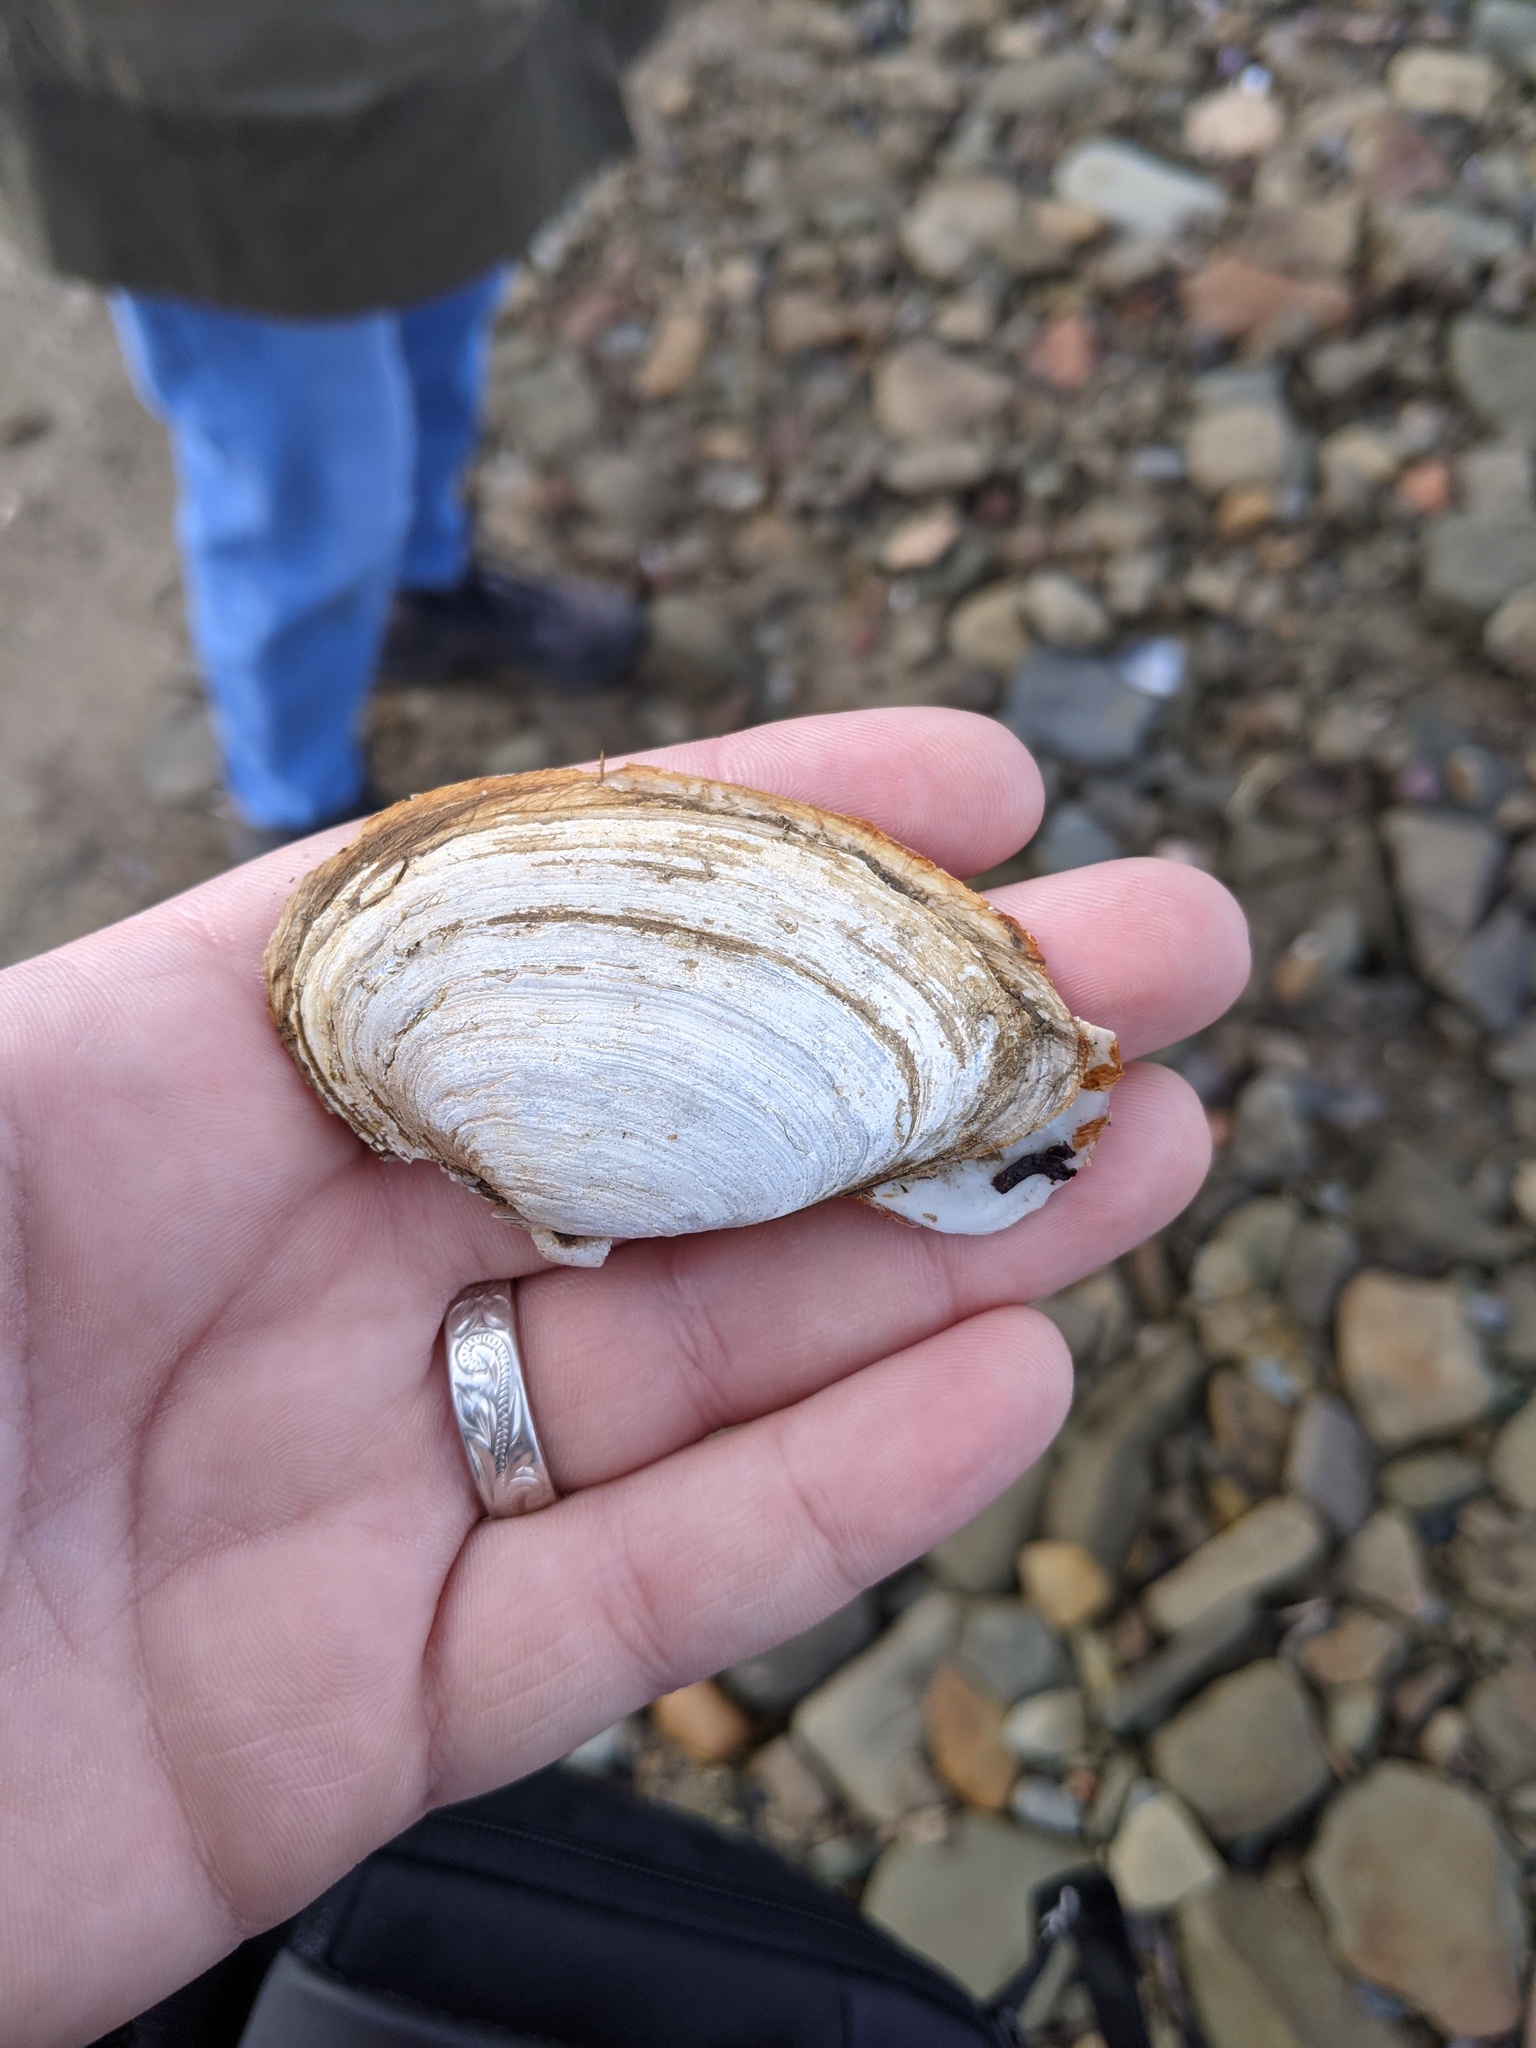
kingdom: Animalia
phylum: Mollusca
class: Bivalvia
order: Myida
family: Myidae
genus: Mya
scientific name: Mya arenaria
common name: Soft-shelled clam
